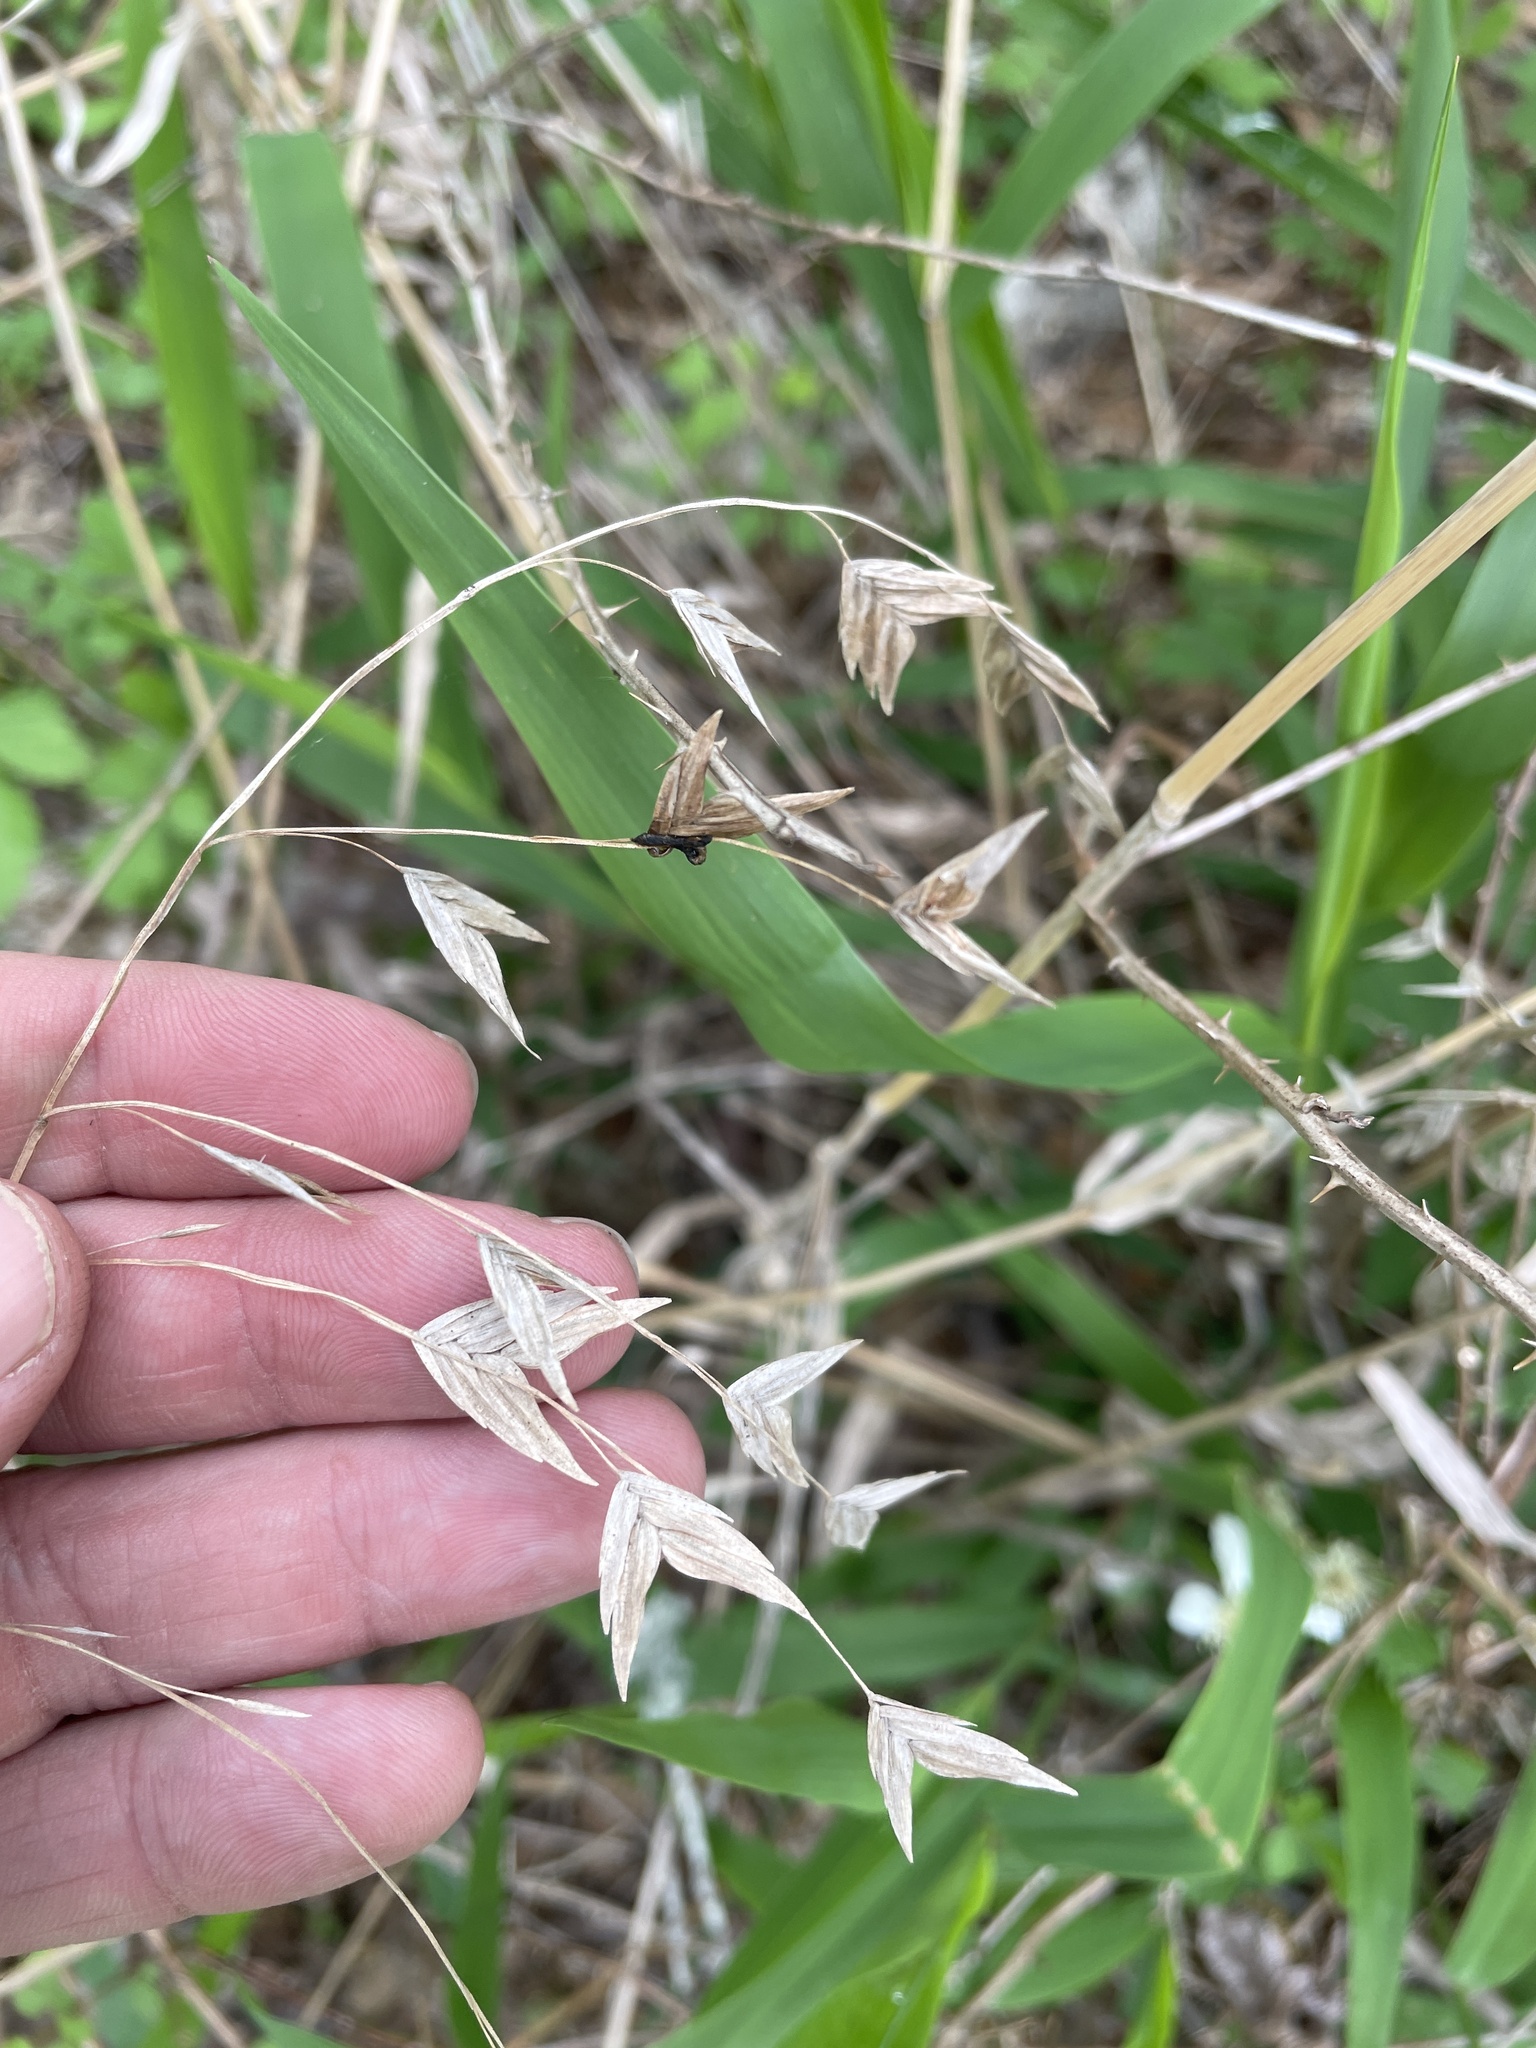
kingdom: Plantae
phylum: Tracheophyta
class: Liliopsida
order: Poales
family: Poaceae
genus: Chasmanthium
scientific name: Chasmanthium latifolium
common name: Broad-leaved chasmanthium
